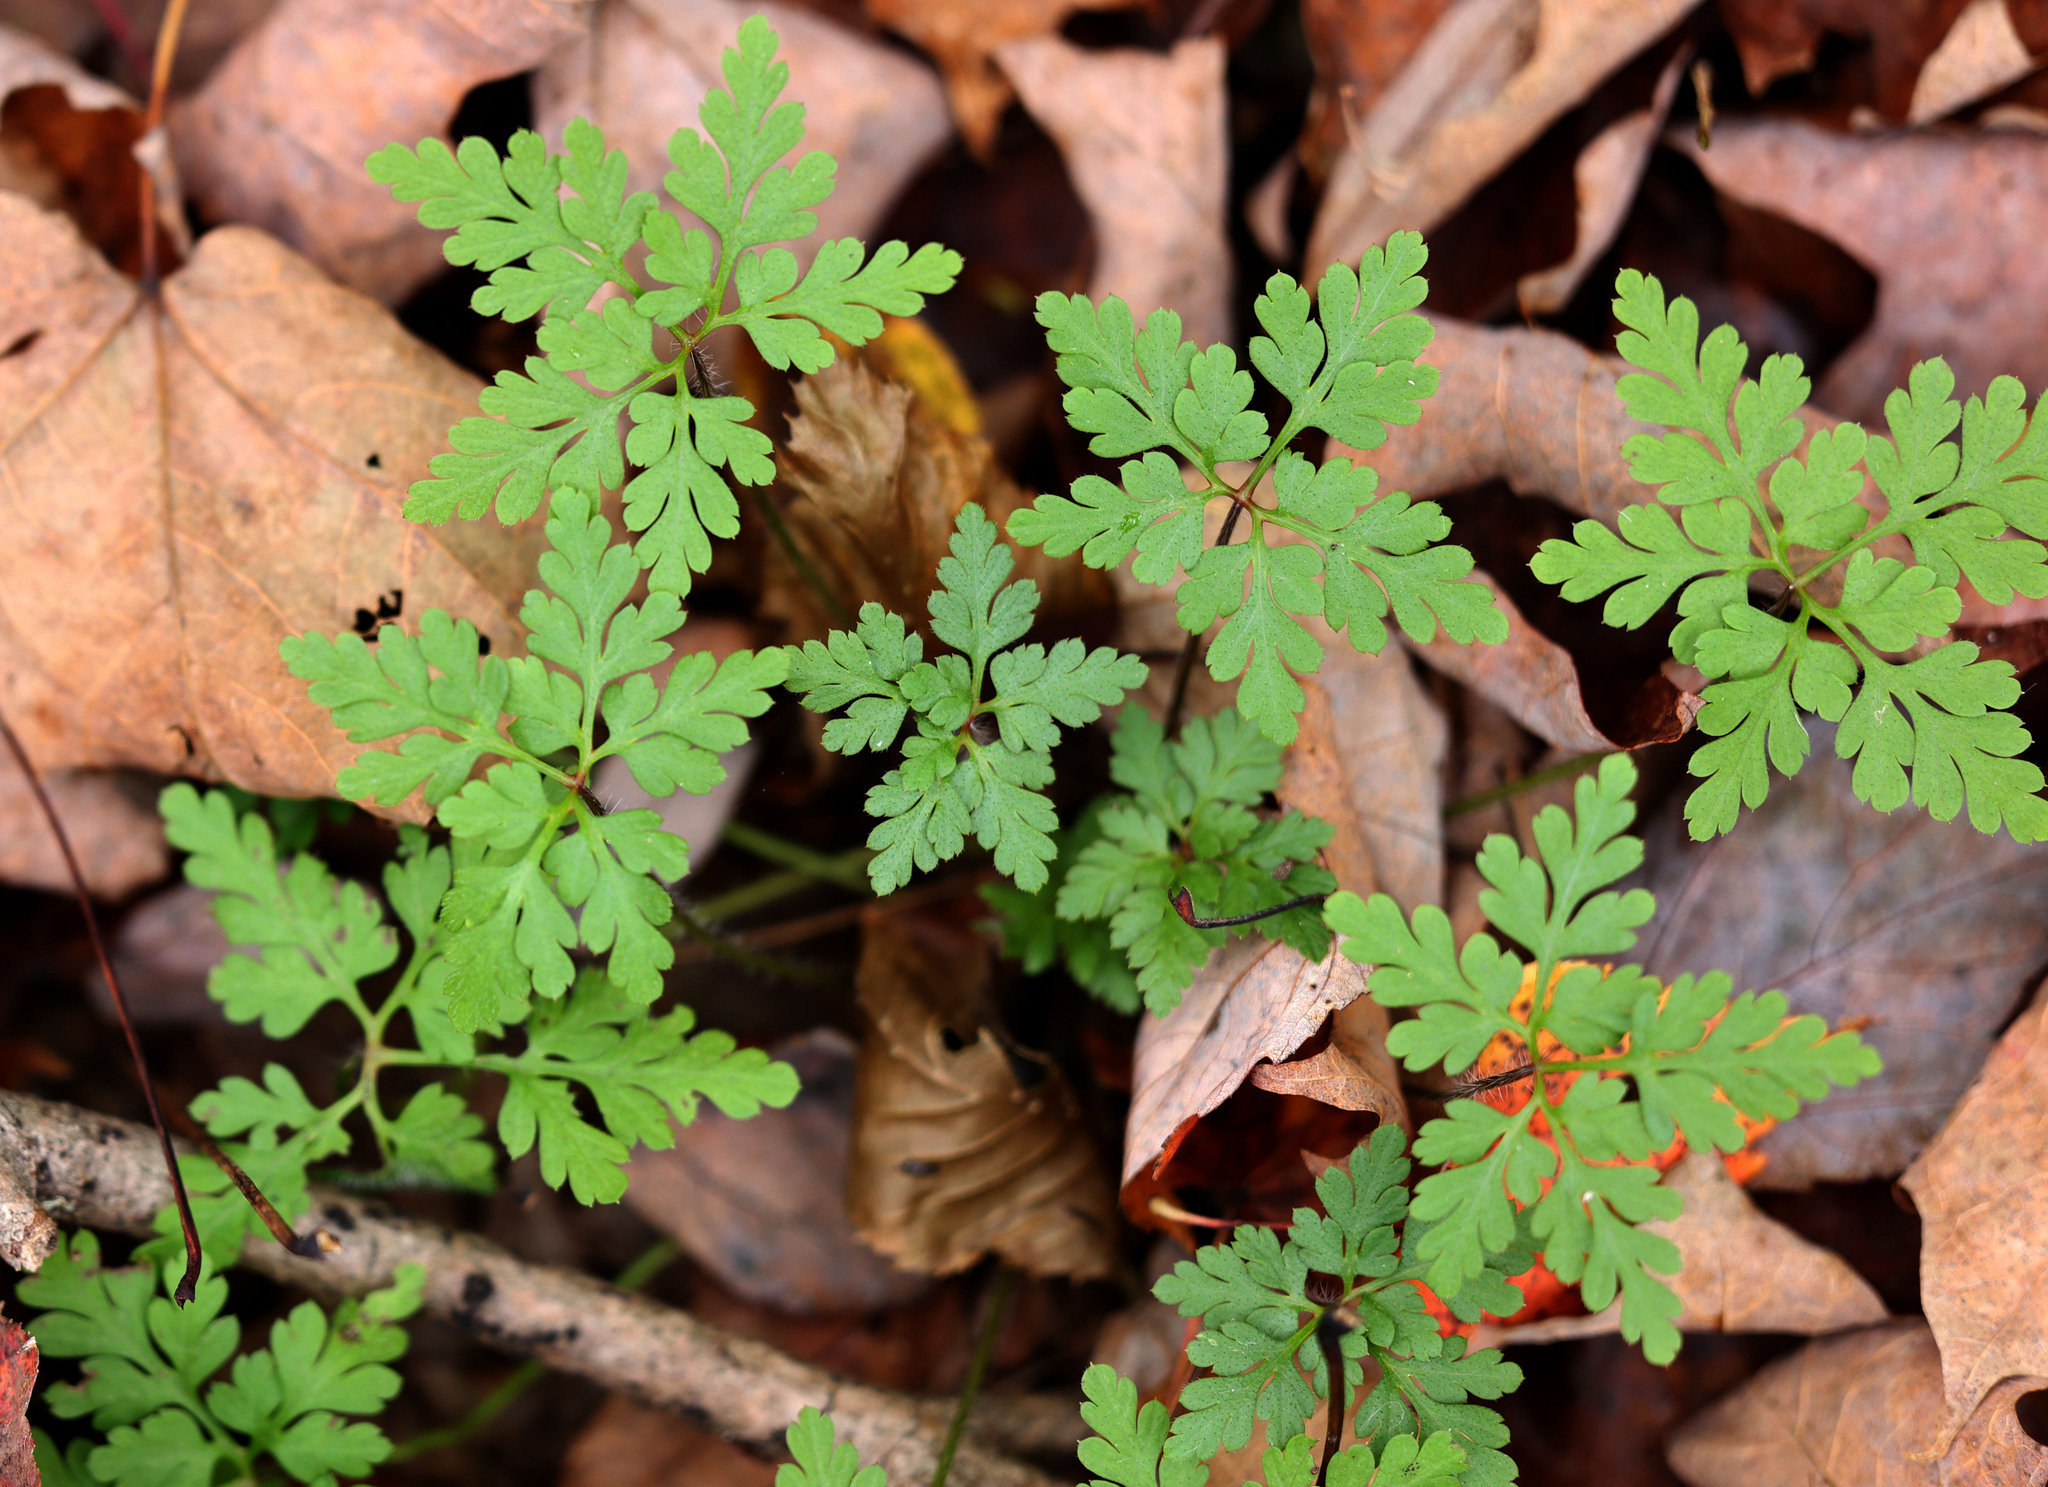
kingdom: Plantae
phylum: Tracheophyta
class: Magnoliopsida
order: Geraniales
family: Geraniaceae
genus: Geranium
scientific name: Geranium robertianum
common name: Herb-robert
